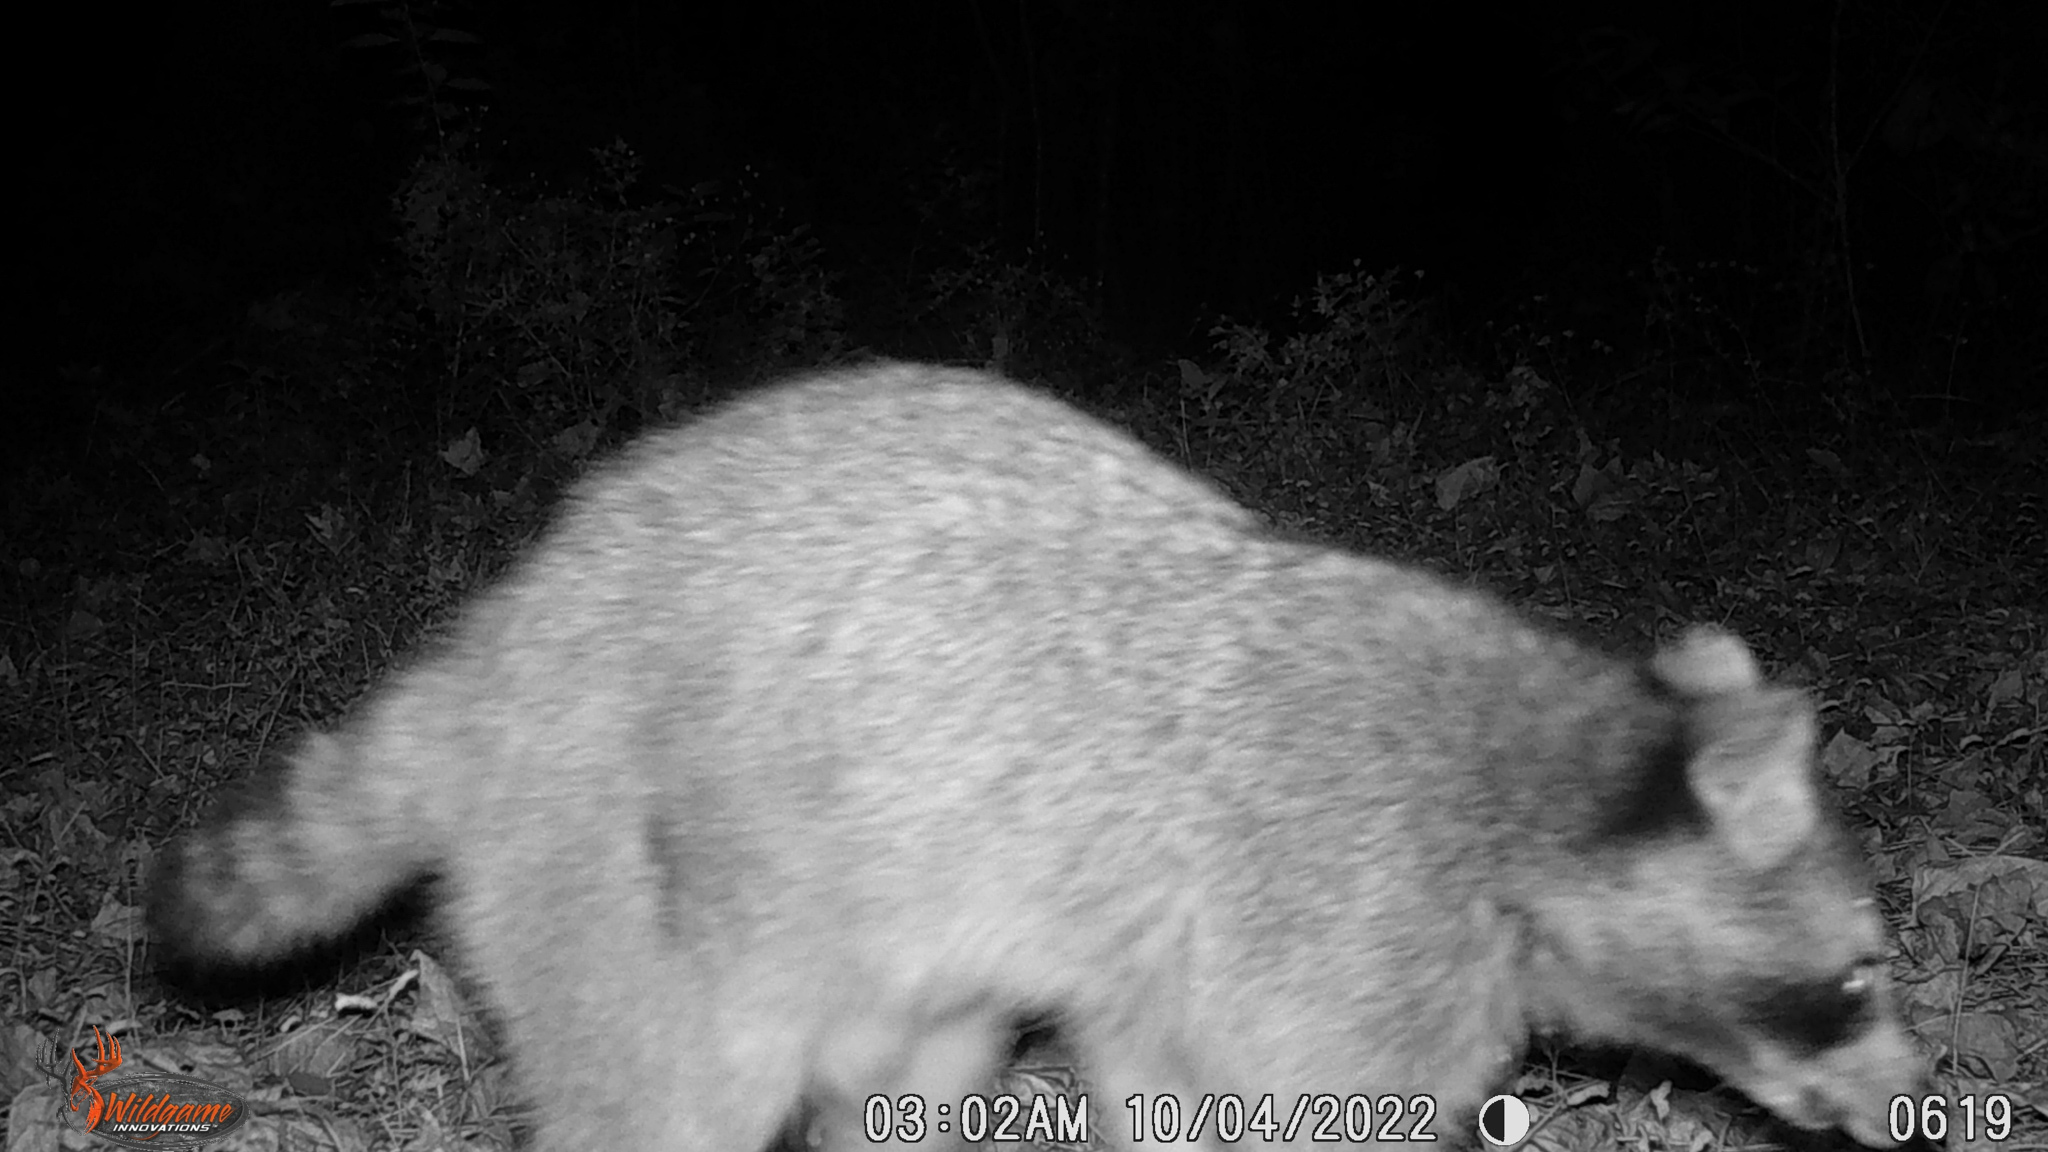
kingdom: Animalia
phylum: Chordata
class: Mammalia
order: Carnivora
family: Procyonidae
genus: Procyon
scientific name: Procyon lotor
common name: Raccoon
